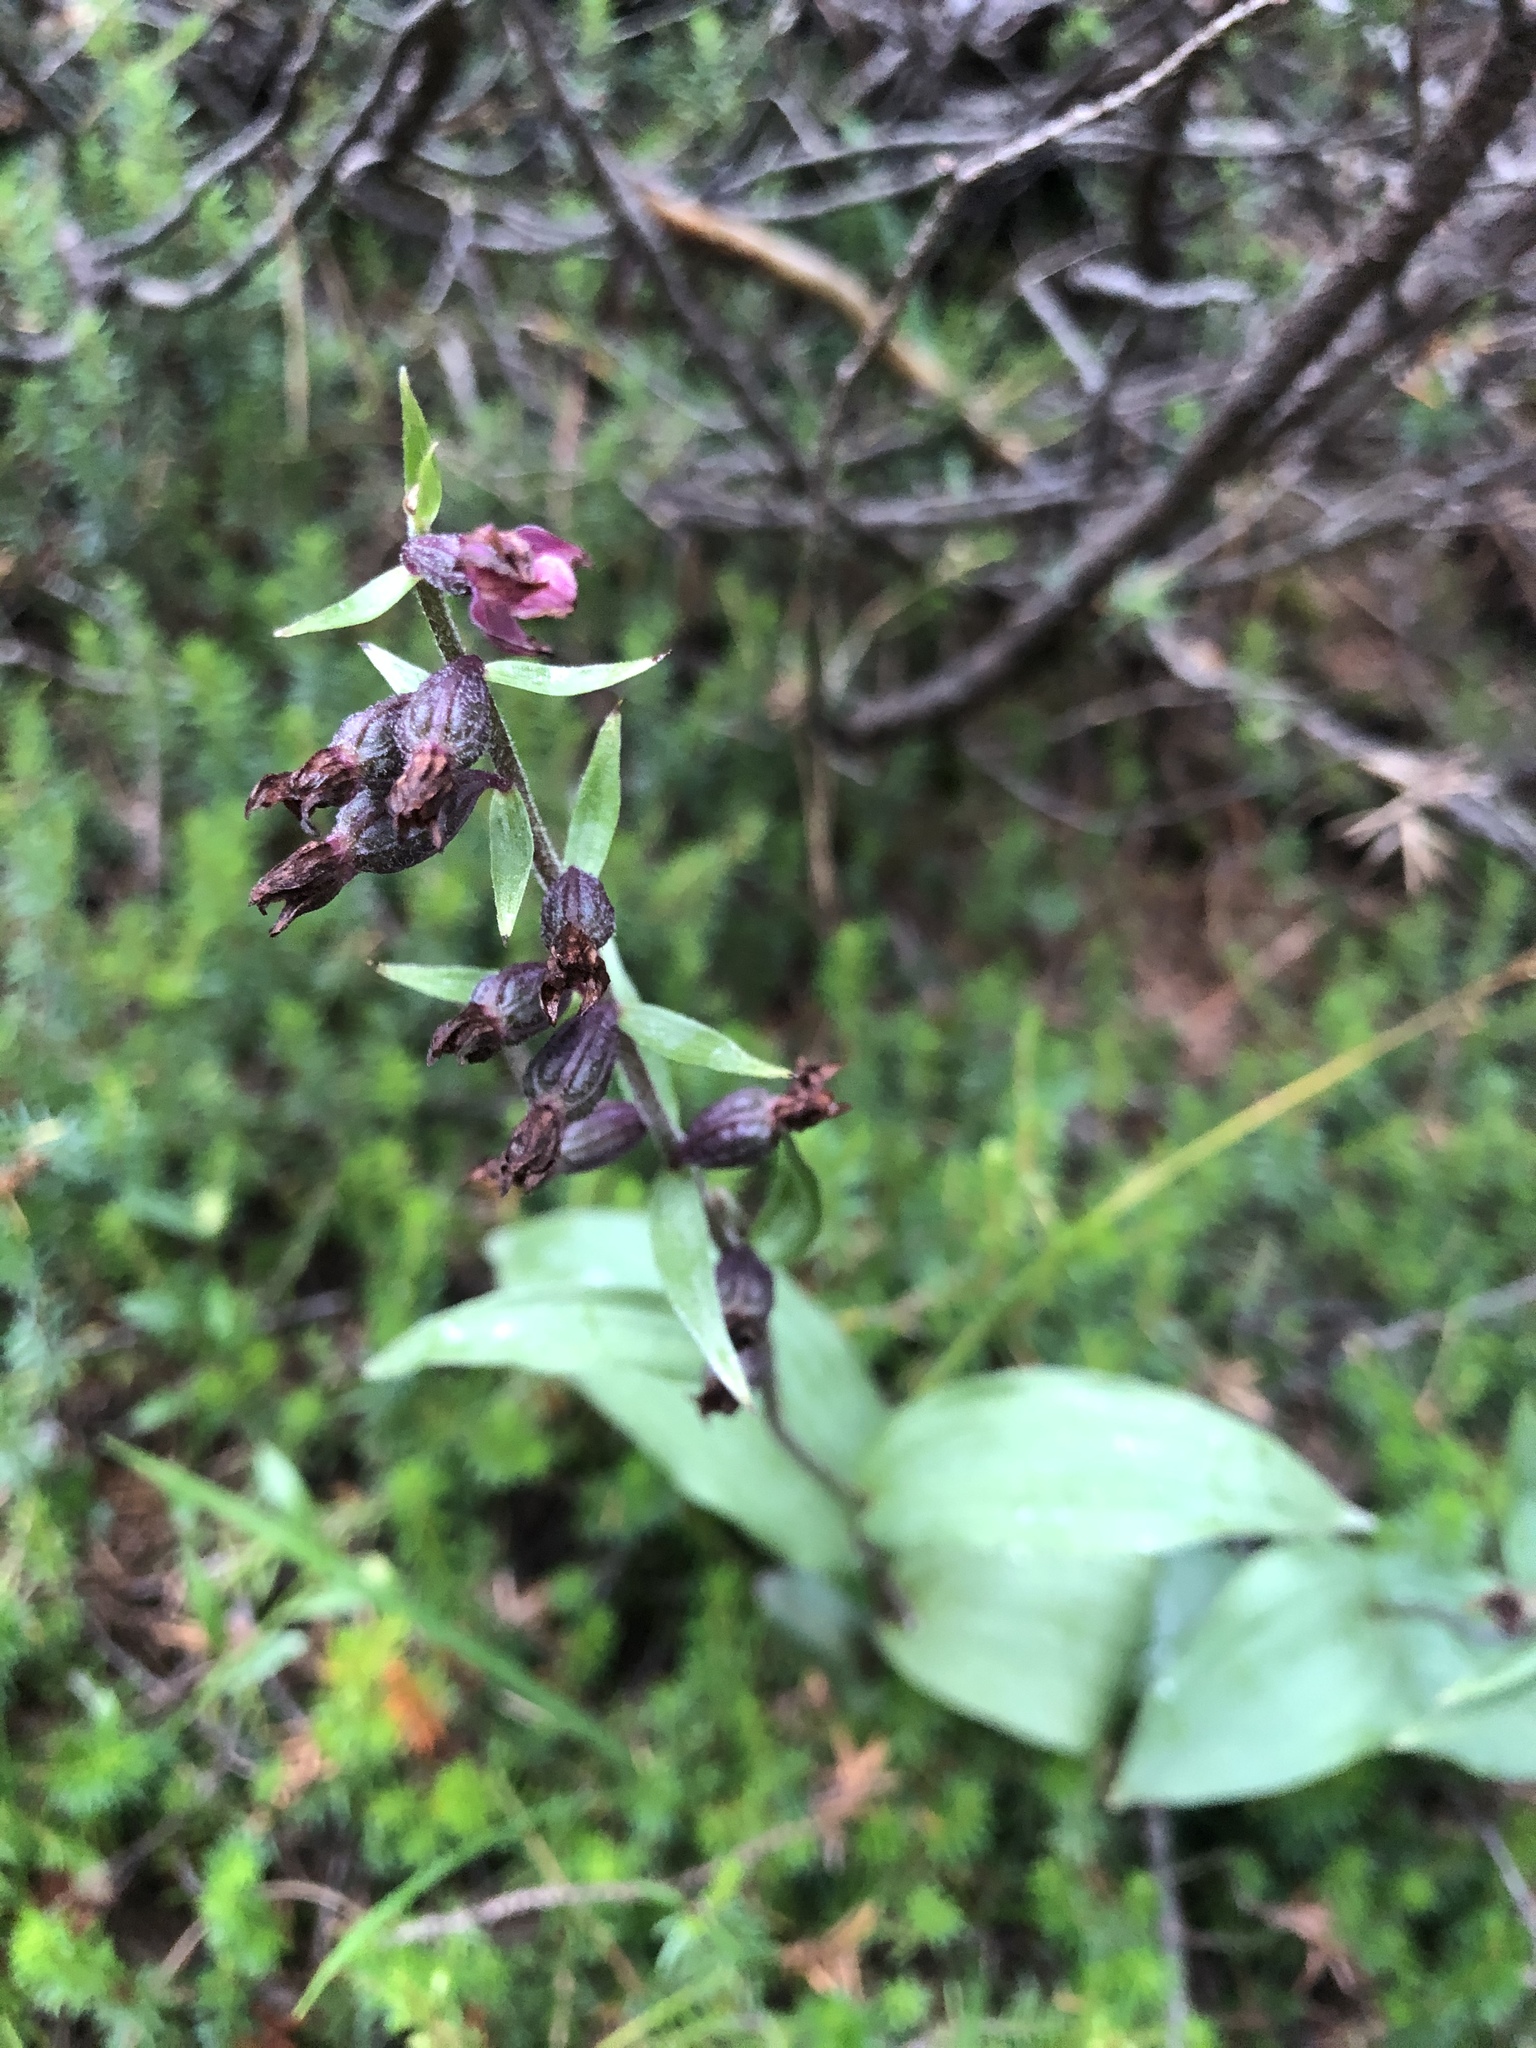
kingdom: Plantae
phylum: Tracheophyta
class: Liliopsida
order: Asparagales
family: Orchidaceae
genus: Epipactis
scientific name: Epipactis atrorubens
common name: Dark-red helleborine
